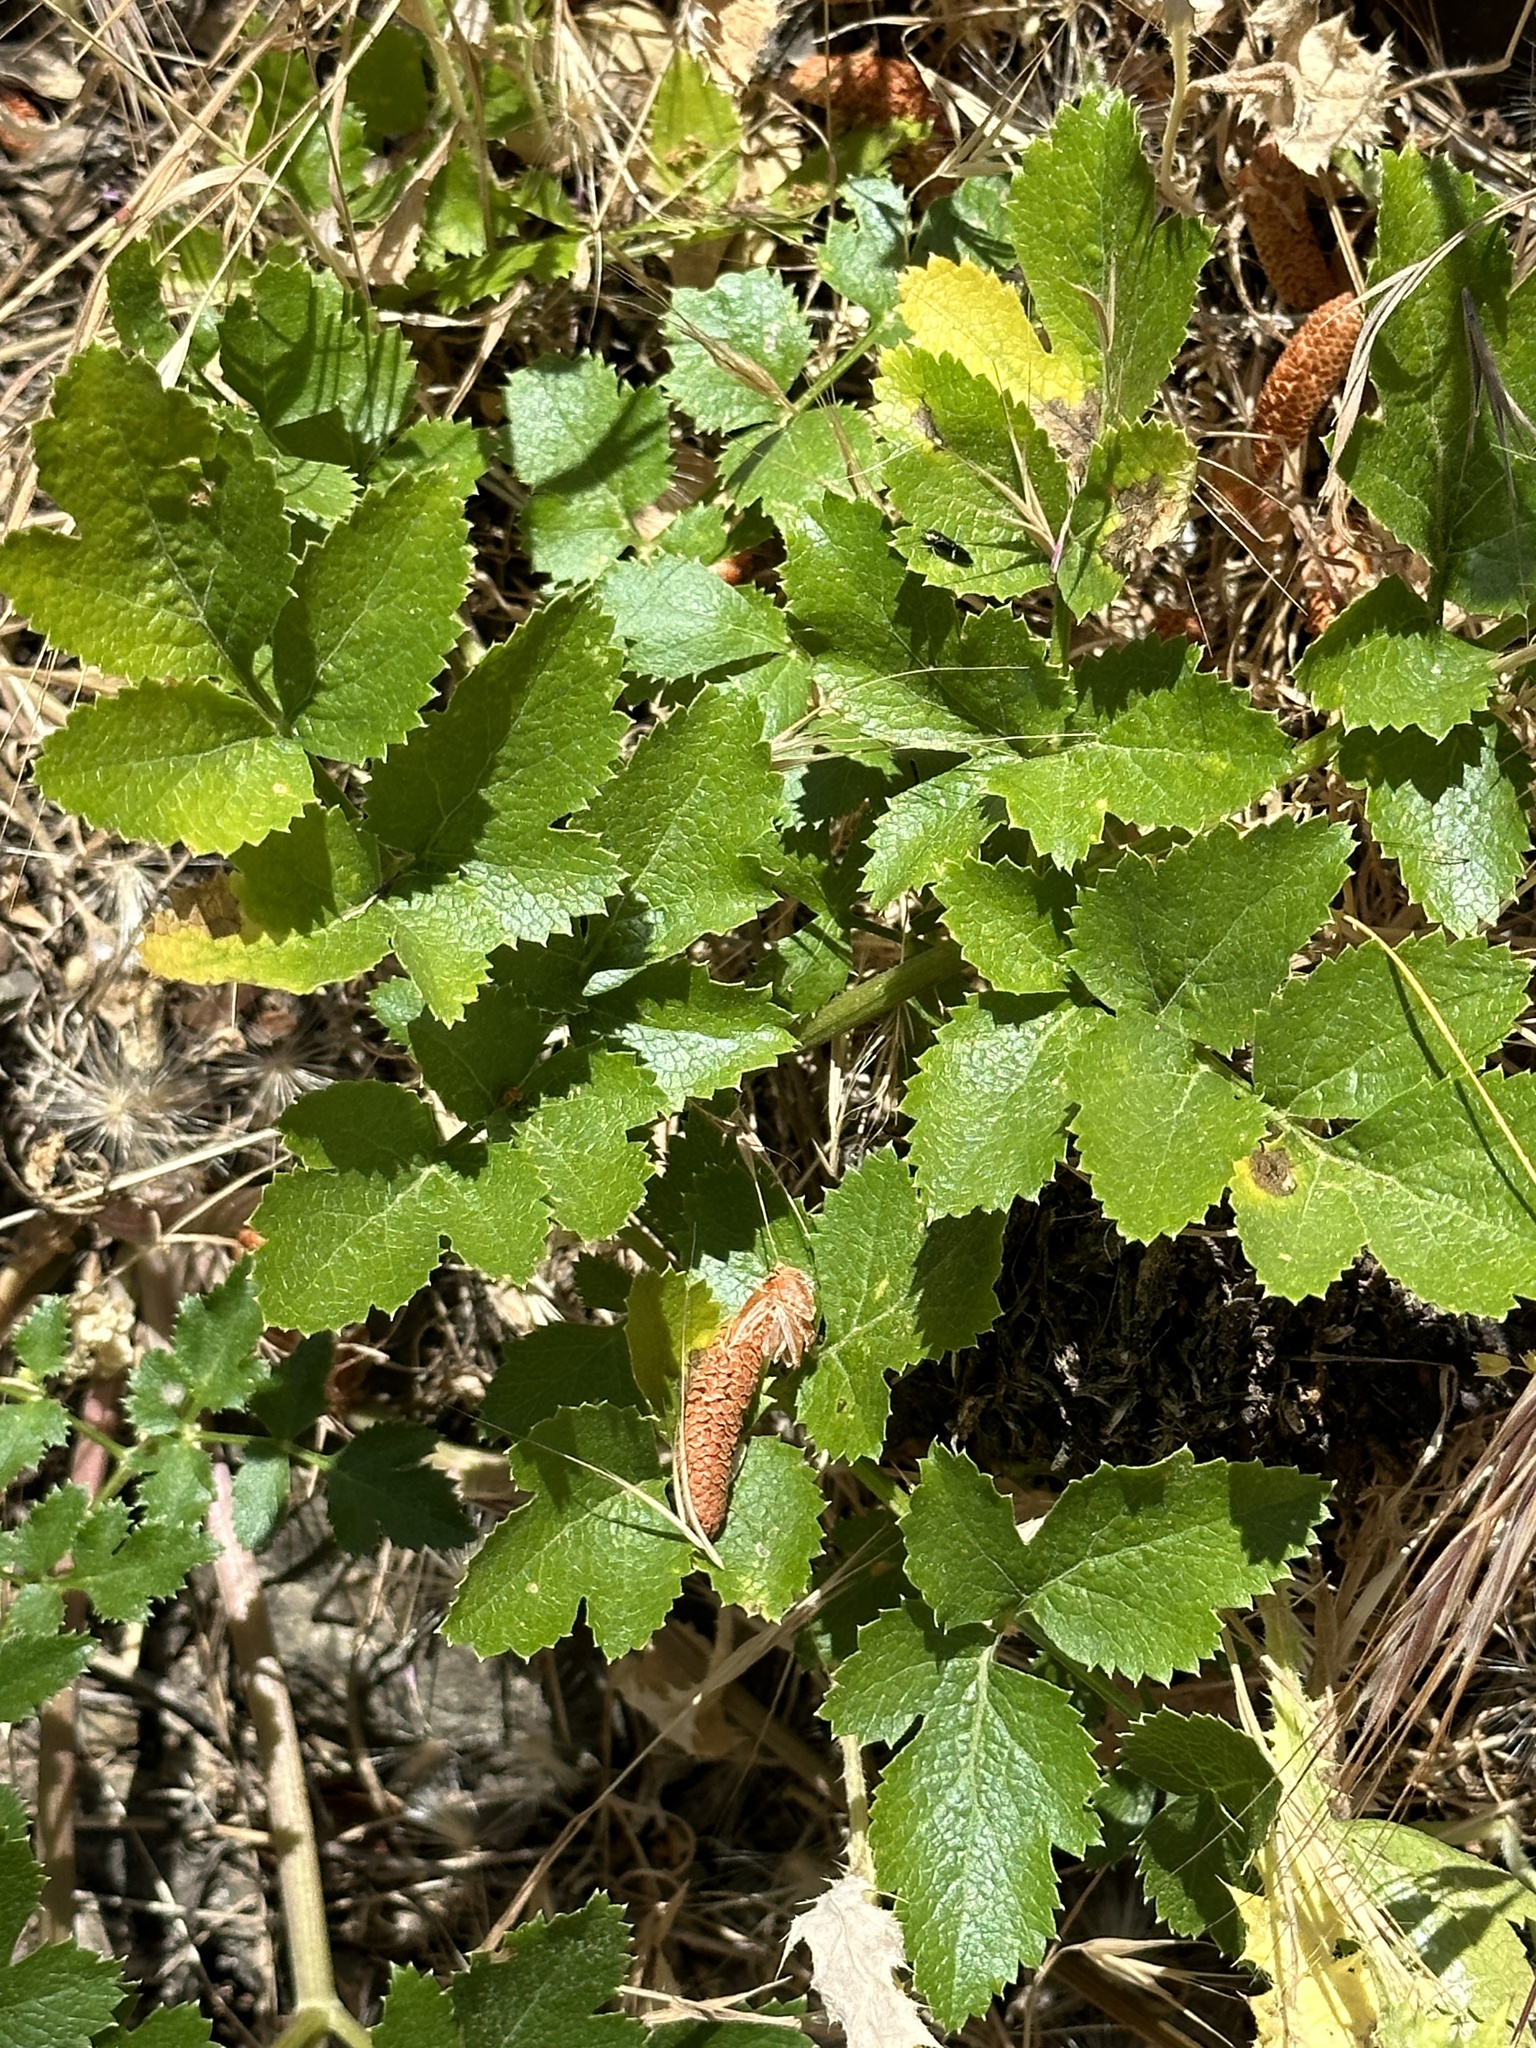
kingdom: Plantae
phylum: Tracheophyta
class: Magnoliopsida
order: Apiales
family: Apiaceae
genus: Tauschia
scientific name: Tauschia hartwegii
